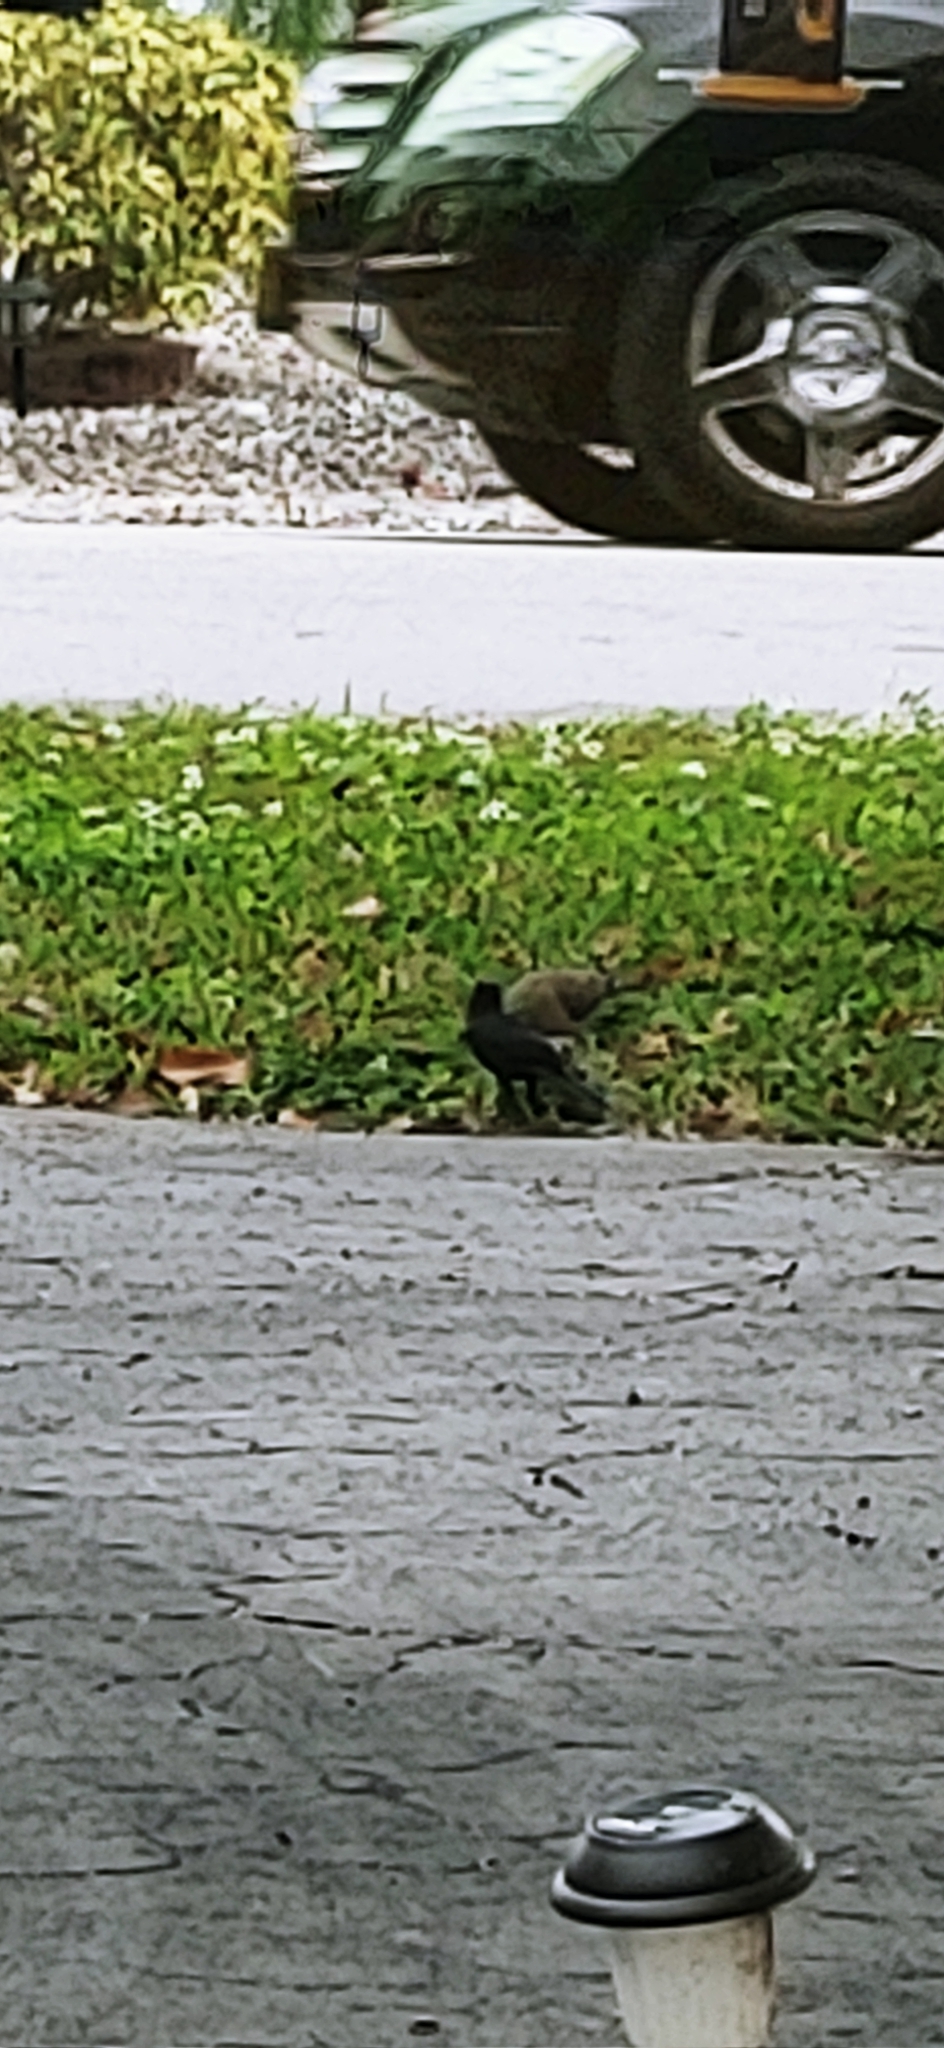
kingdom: Animalia
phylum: Chordata
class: Aves
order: Passeriformes
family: Icteridae
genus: Quiscalus
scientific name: Quiscalus quiscula
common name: Common grackle
